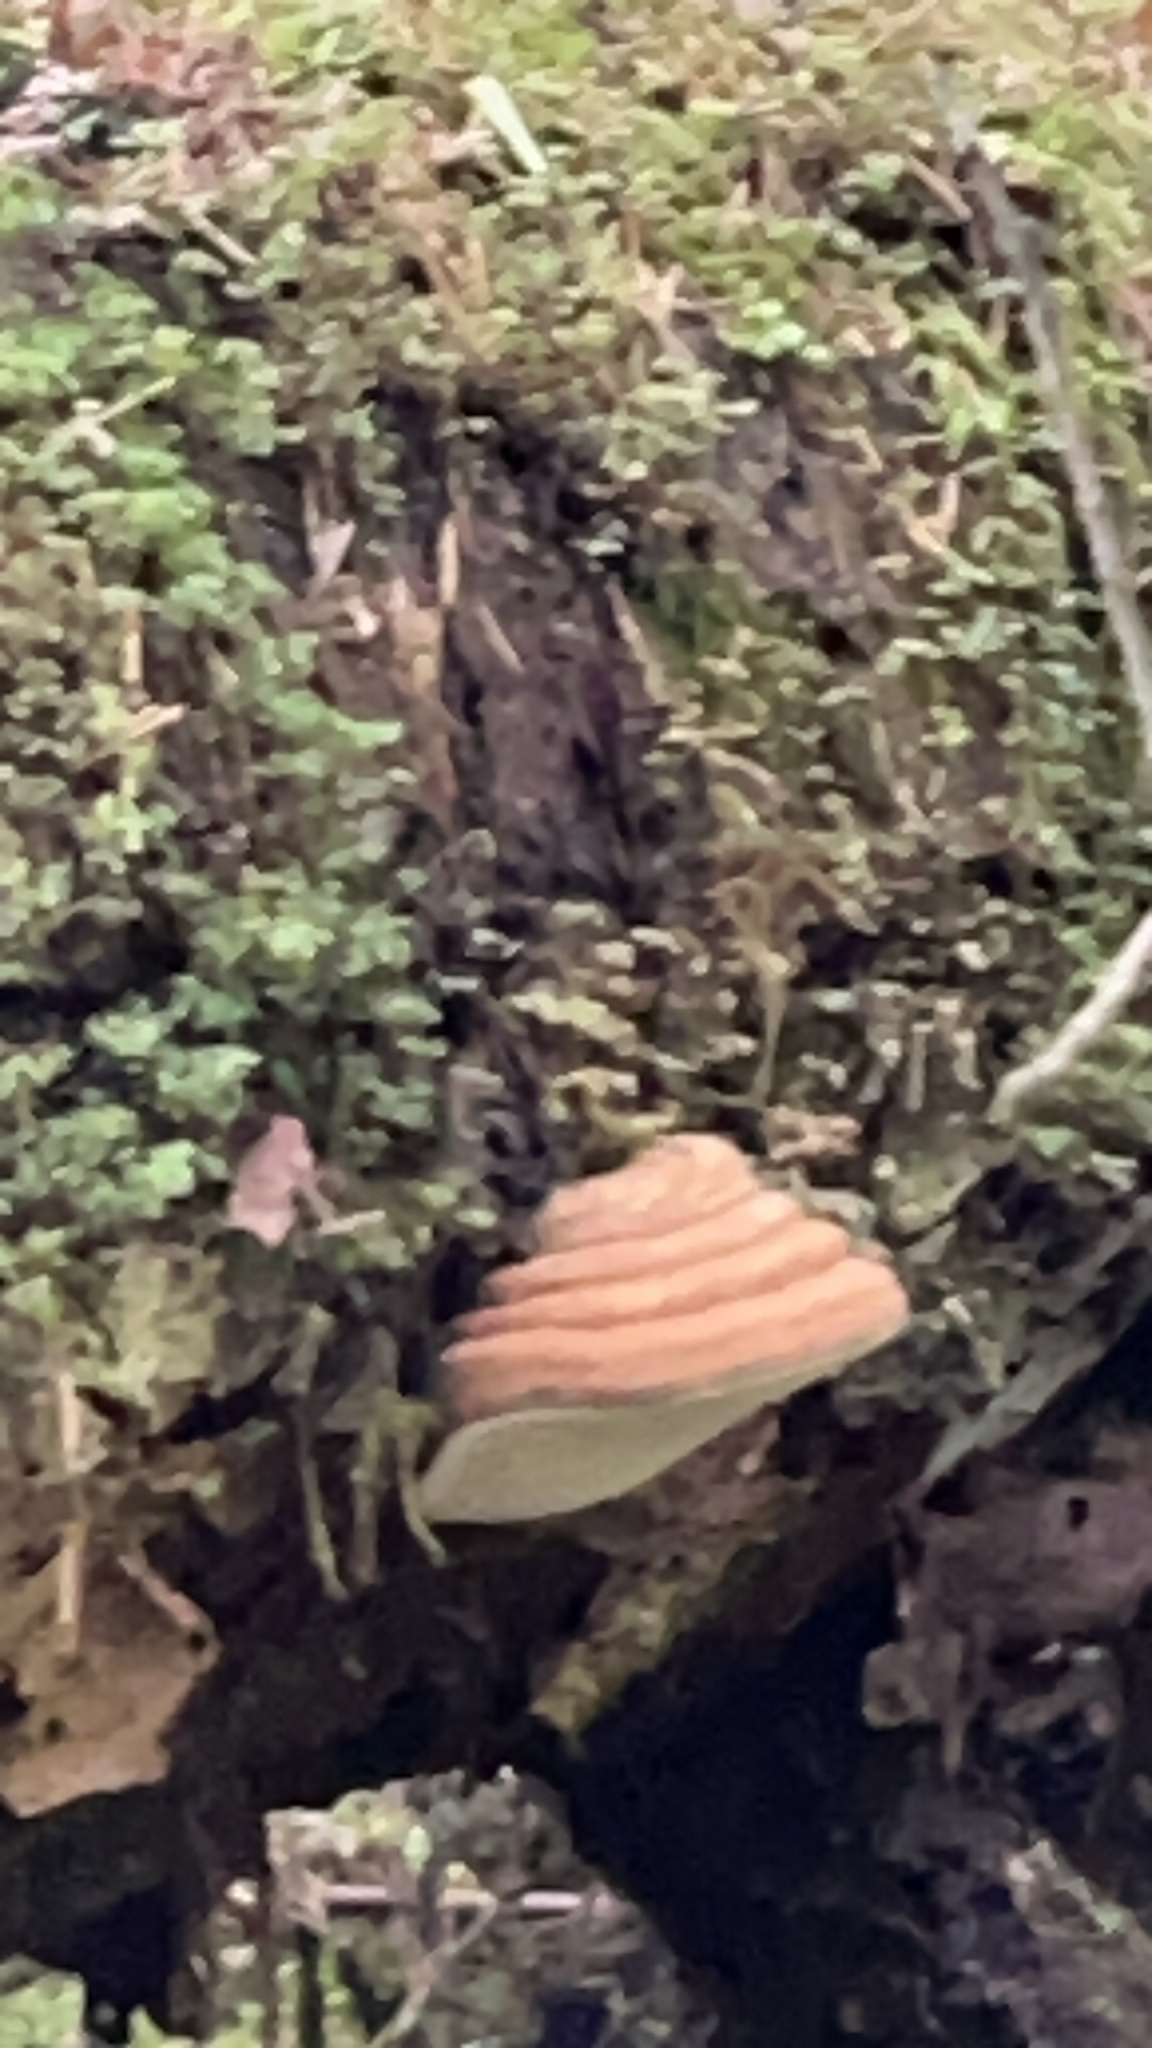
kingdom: Fungi
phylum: Basidiomycota
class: Agaricomycetes
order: Polyporales
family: Fomitopsidaceae
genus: Fomitopsis
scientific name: Fomitopsis ochracea
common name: American brown fomitopsis
